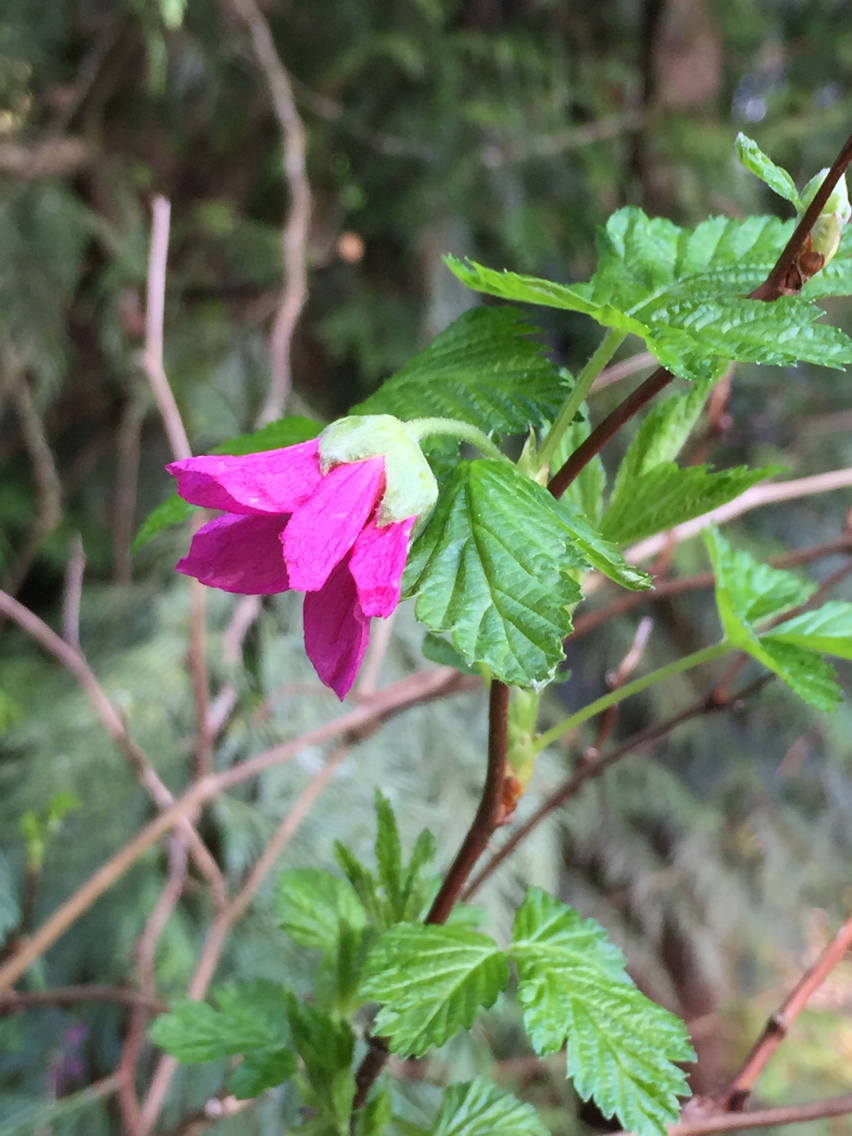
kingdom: Plantae
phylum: Tracheophyta
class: Magnoliopsida
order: Rosales
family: Rosaceae
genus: Rubus
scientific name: Rubus spectabilis
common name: Salmonberry
